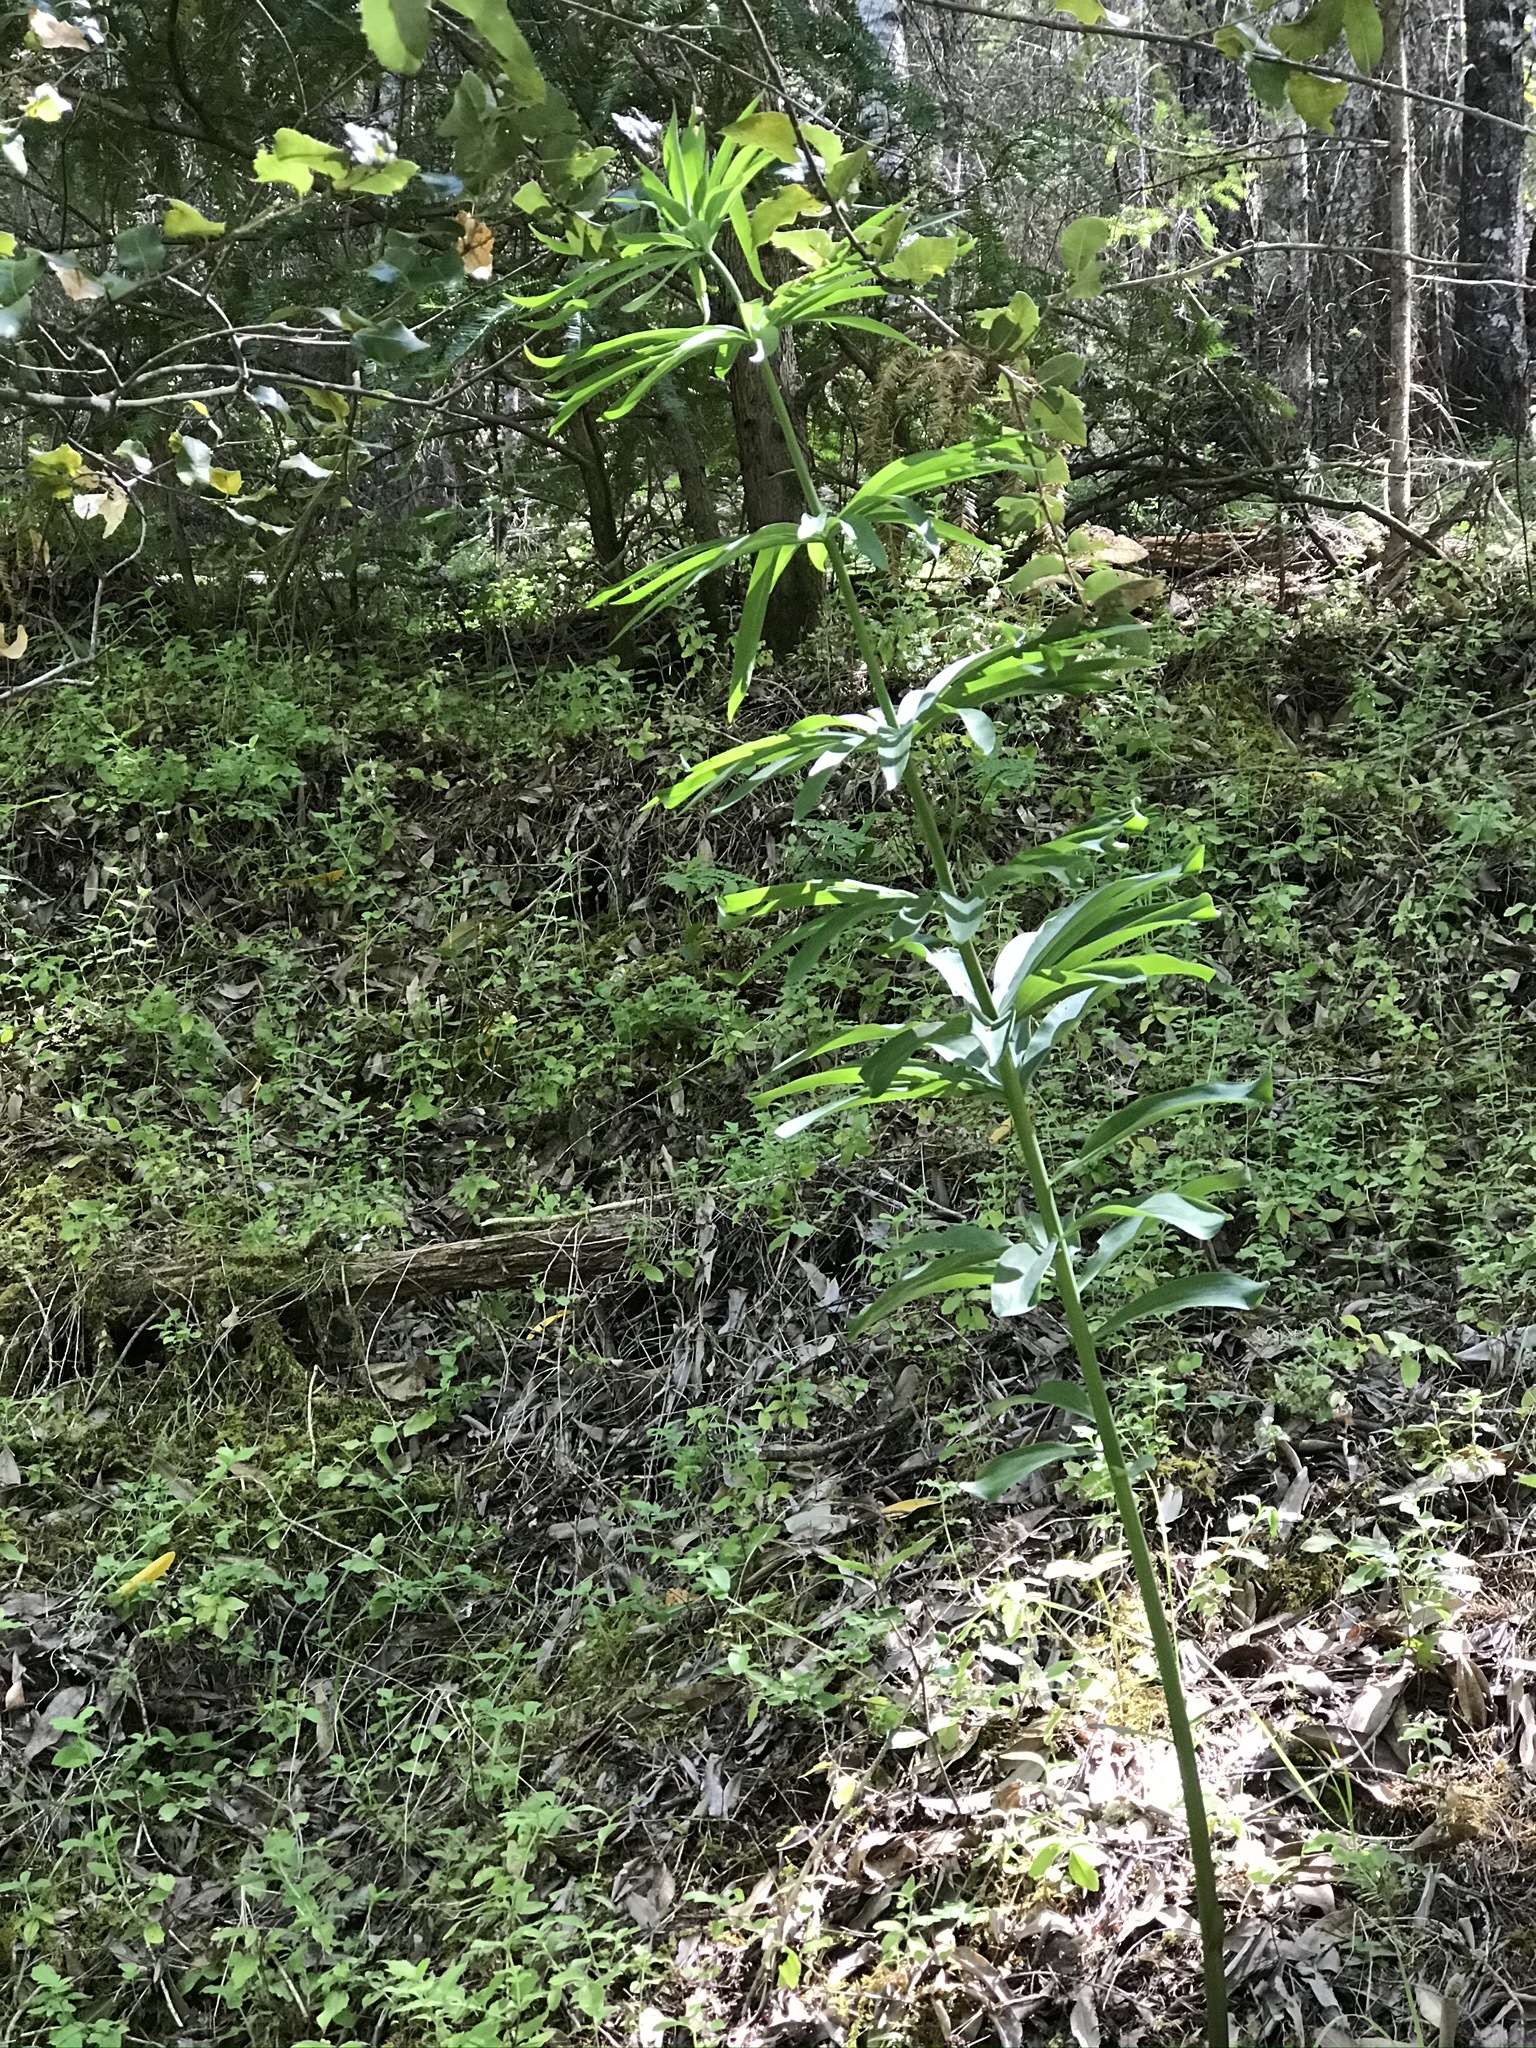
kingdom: Plantae
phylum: Tracheophyta
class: Liliopsida
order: Liliales
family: Liliaceae
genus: Lilium
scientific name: Lilium rubescens
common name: Chamise lily
